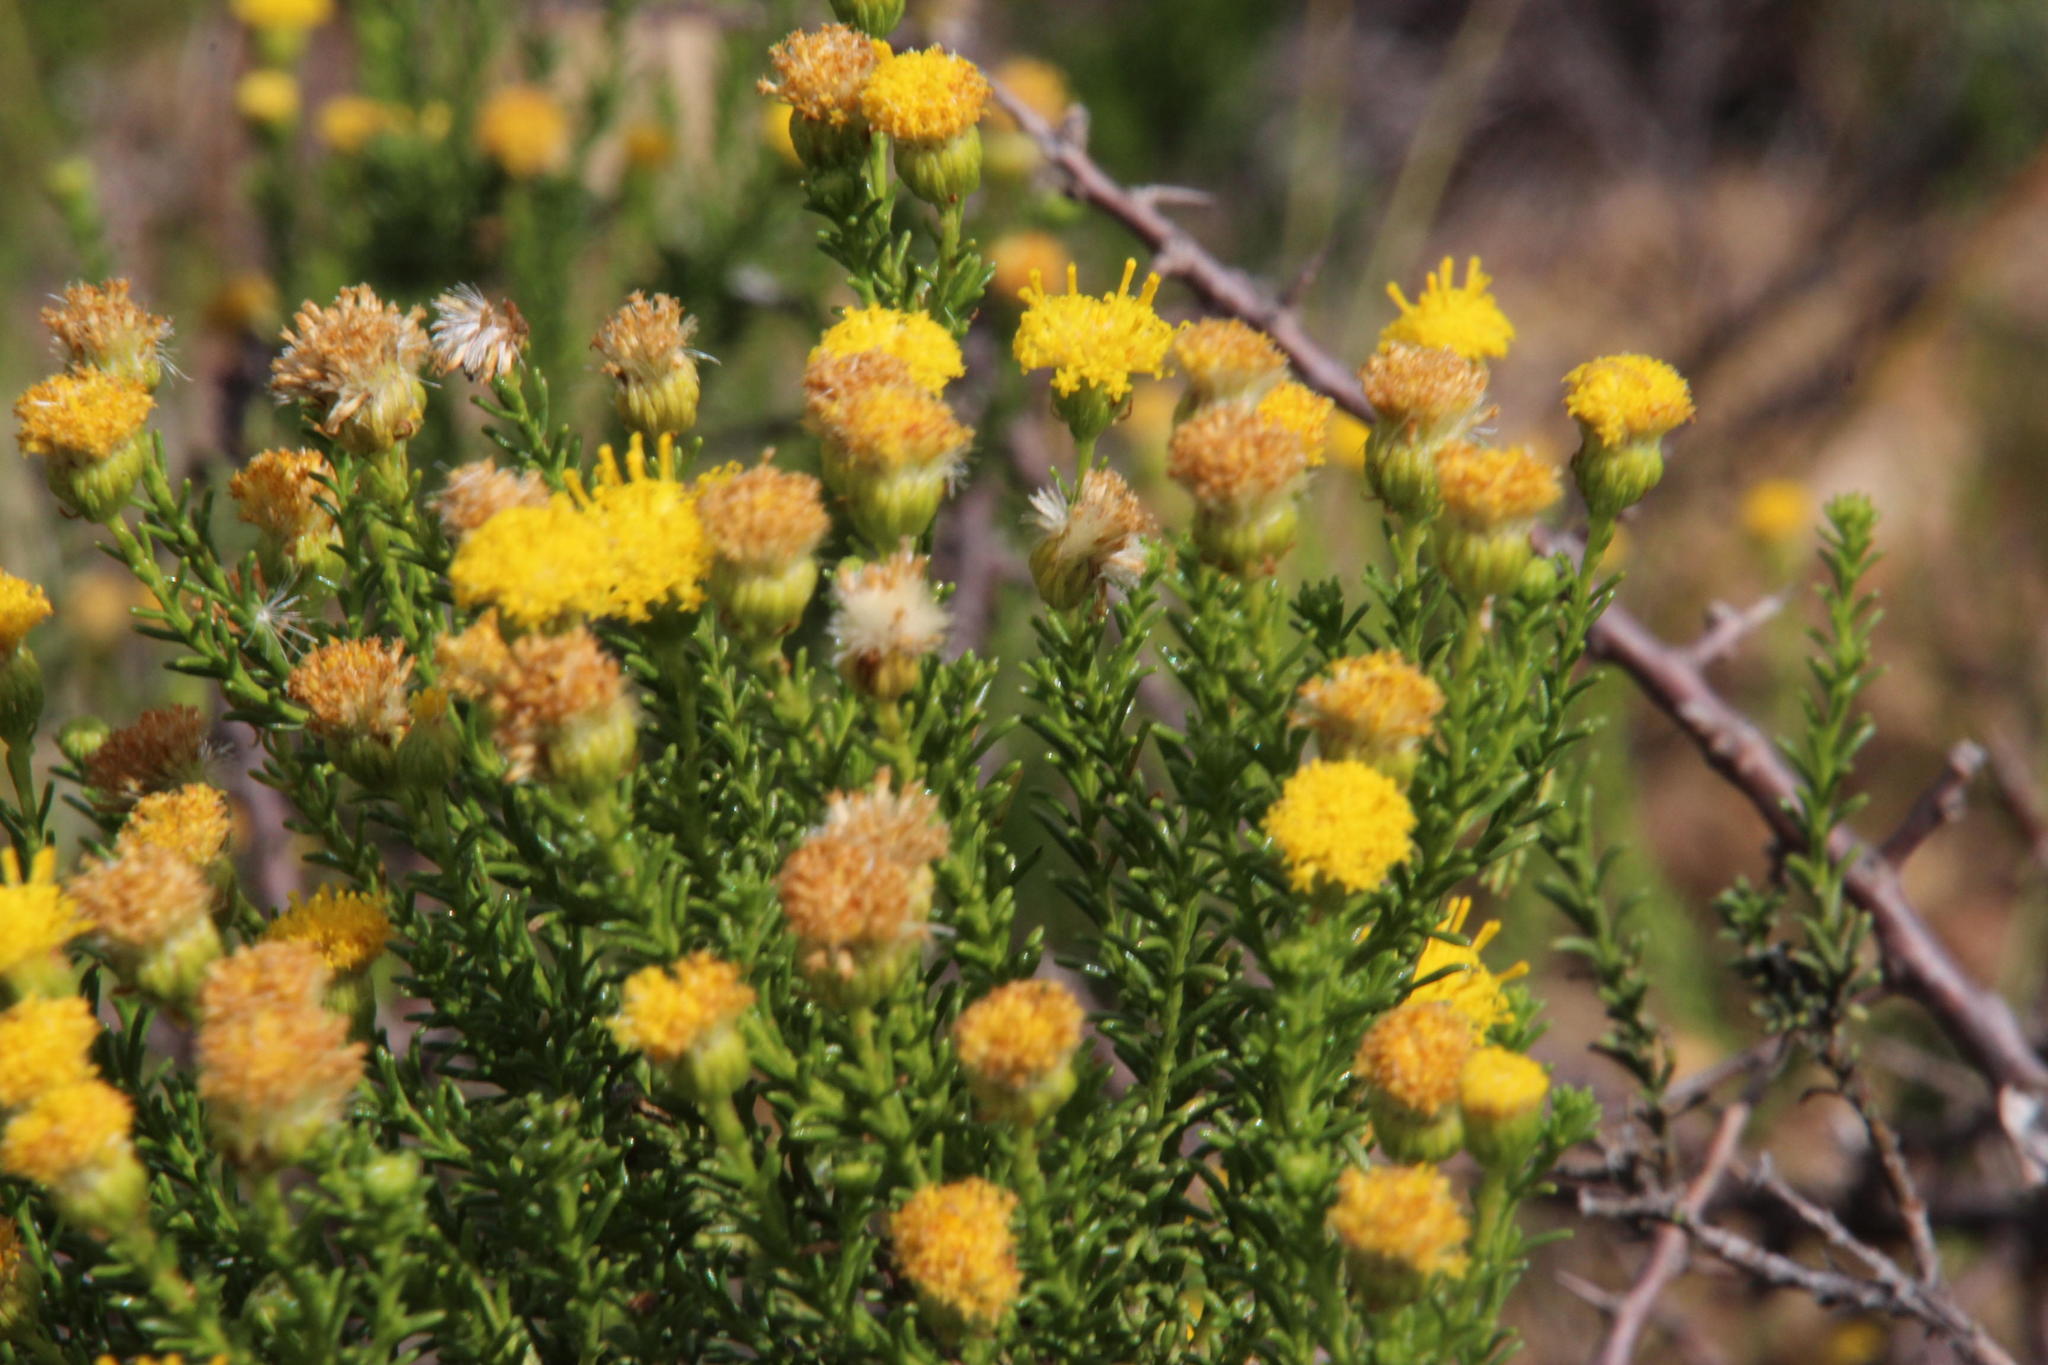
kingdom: Plantae
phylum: Tracheophyta
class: Magnoliopsida
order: Asterales
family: Asteraceae
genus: Chrysocoma
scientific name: Chrysocoma ciliata
